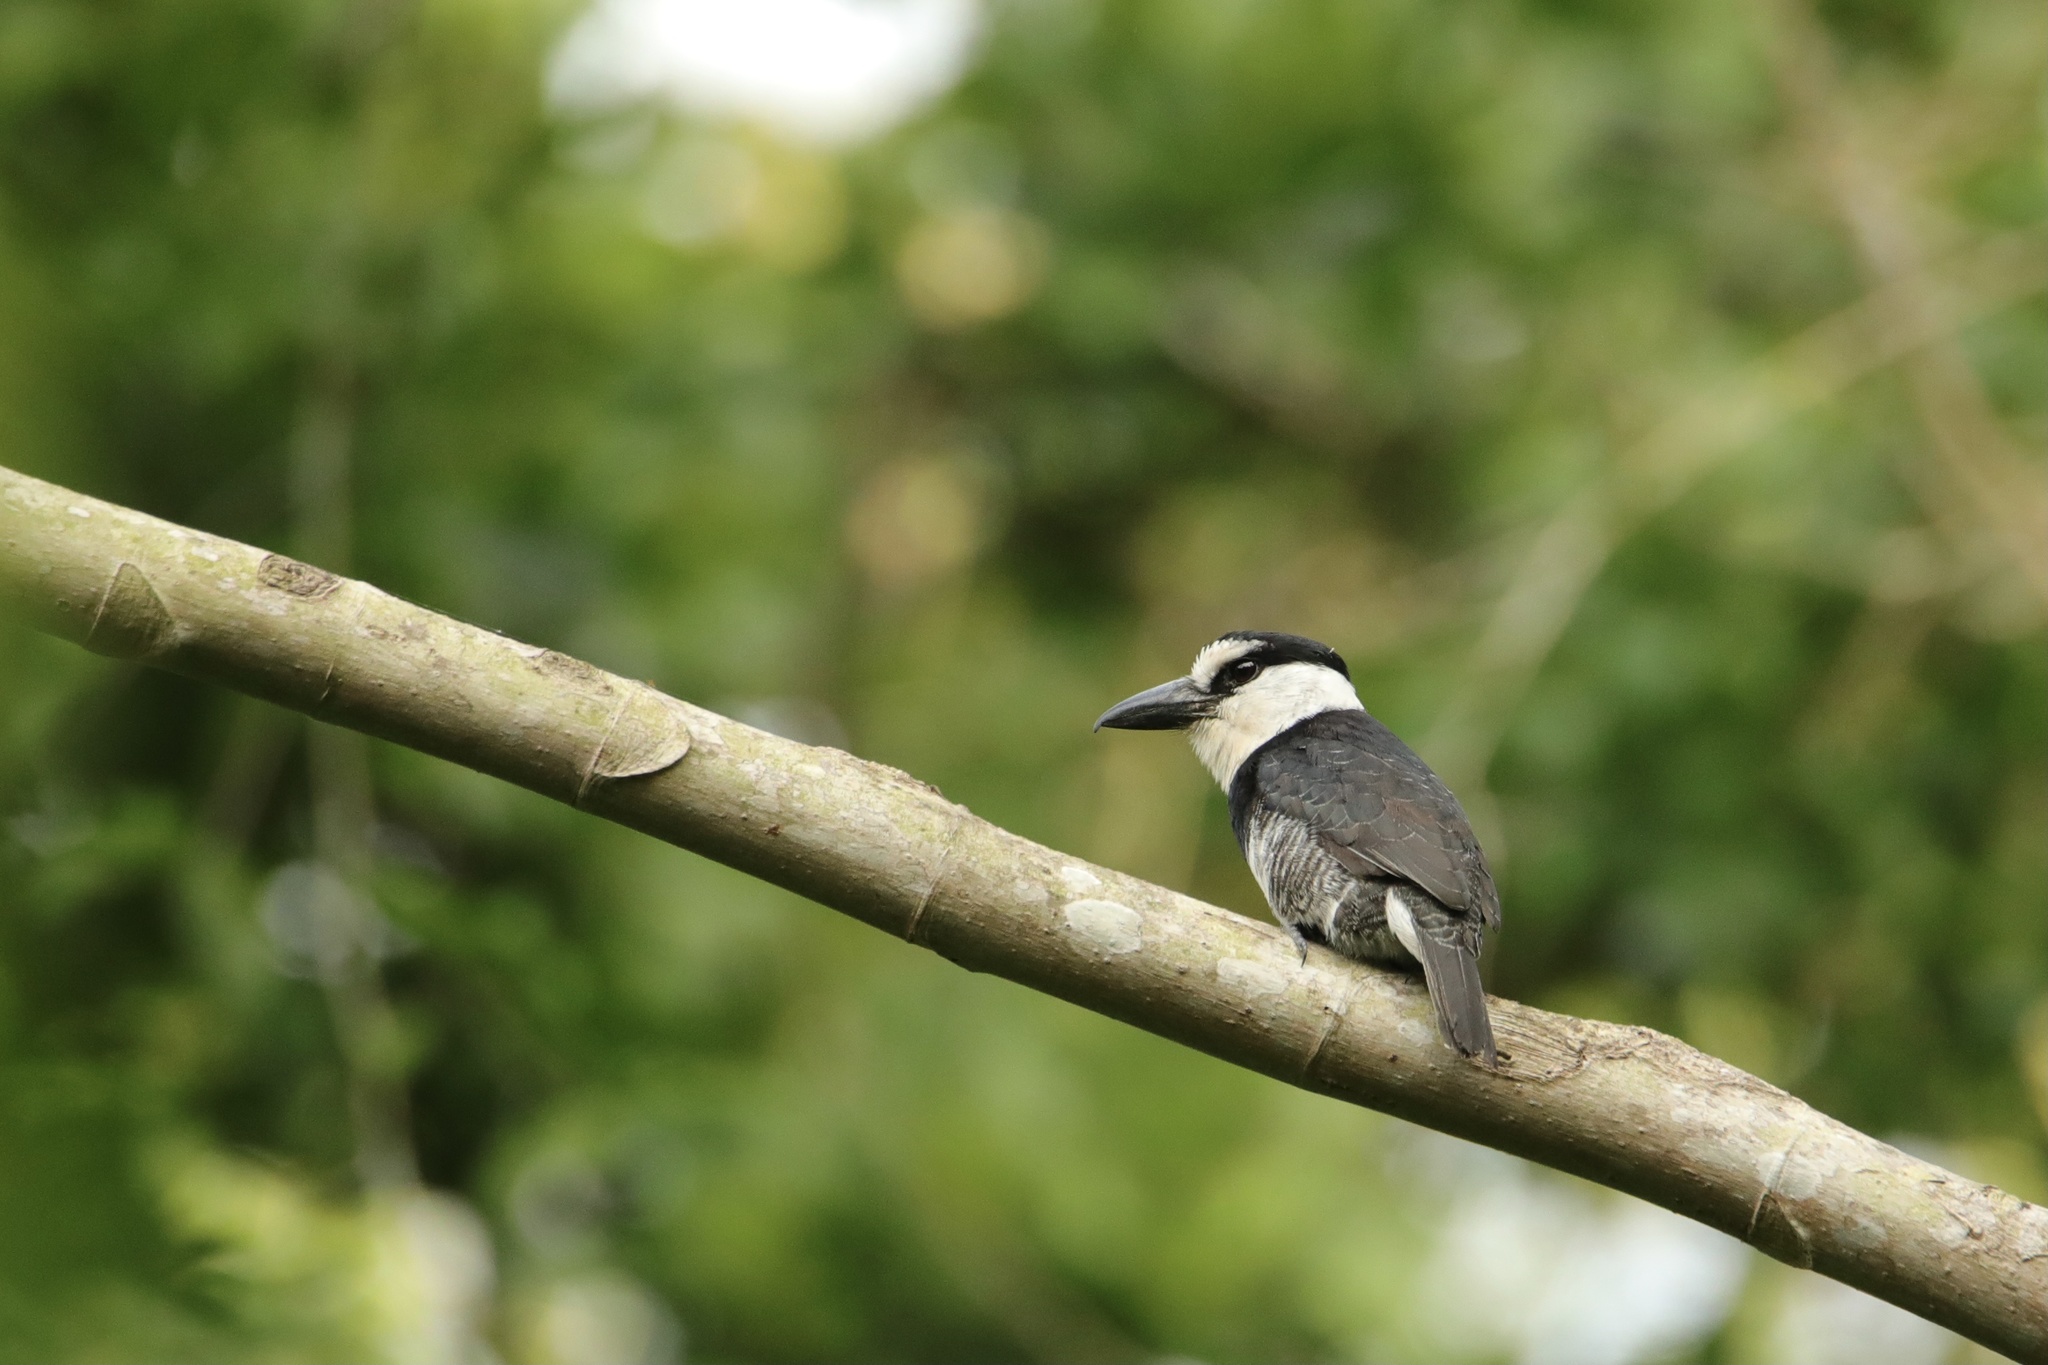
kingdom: Animalia
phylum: Chordata
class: Aves
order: Piciformes
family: Bucconidae
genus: Notharchus
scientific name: Notharchus hyperrhynchus
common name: White-necked puffbird
